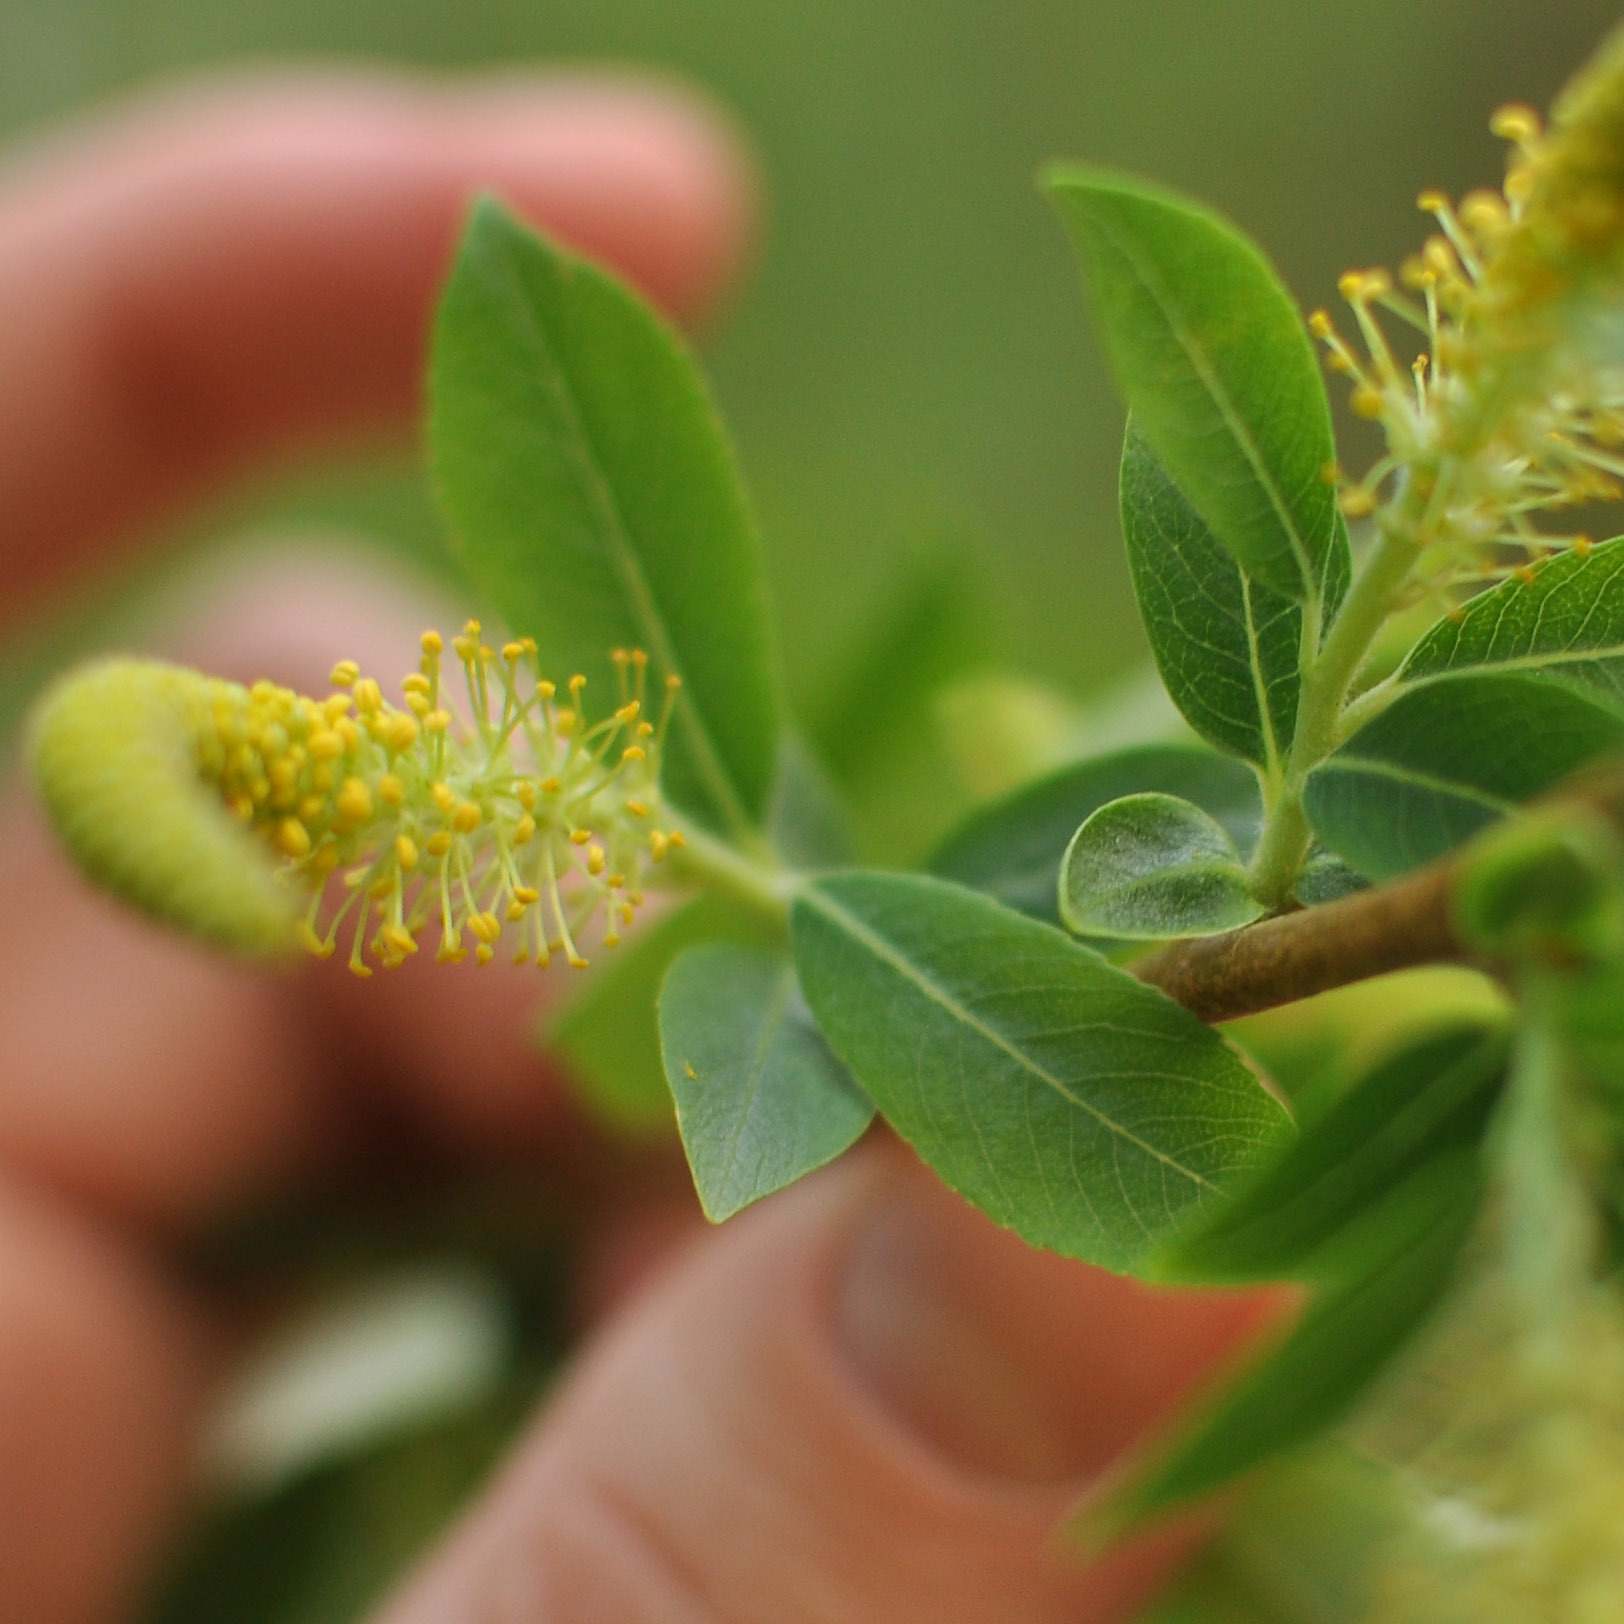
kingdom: Plantae
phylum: Tracheophyta
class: Magnoliopsida
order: Malpighiales
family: Salicaceae
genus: Salix
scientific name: Salix triandra
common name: Almond willow
